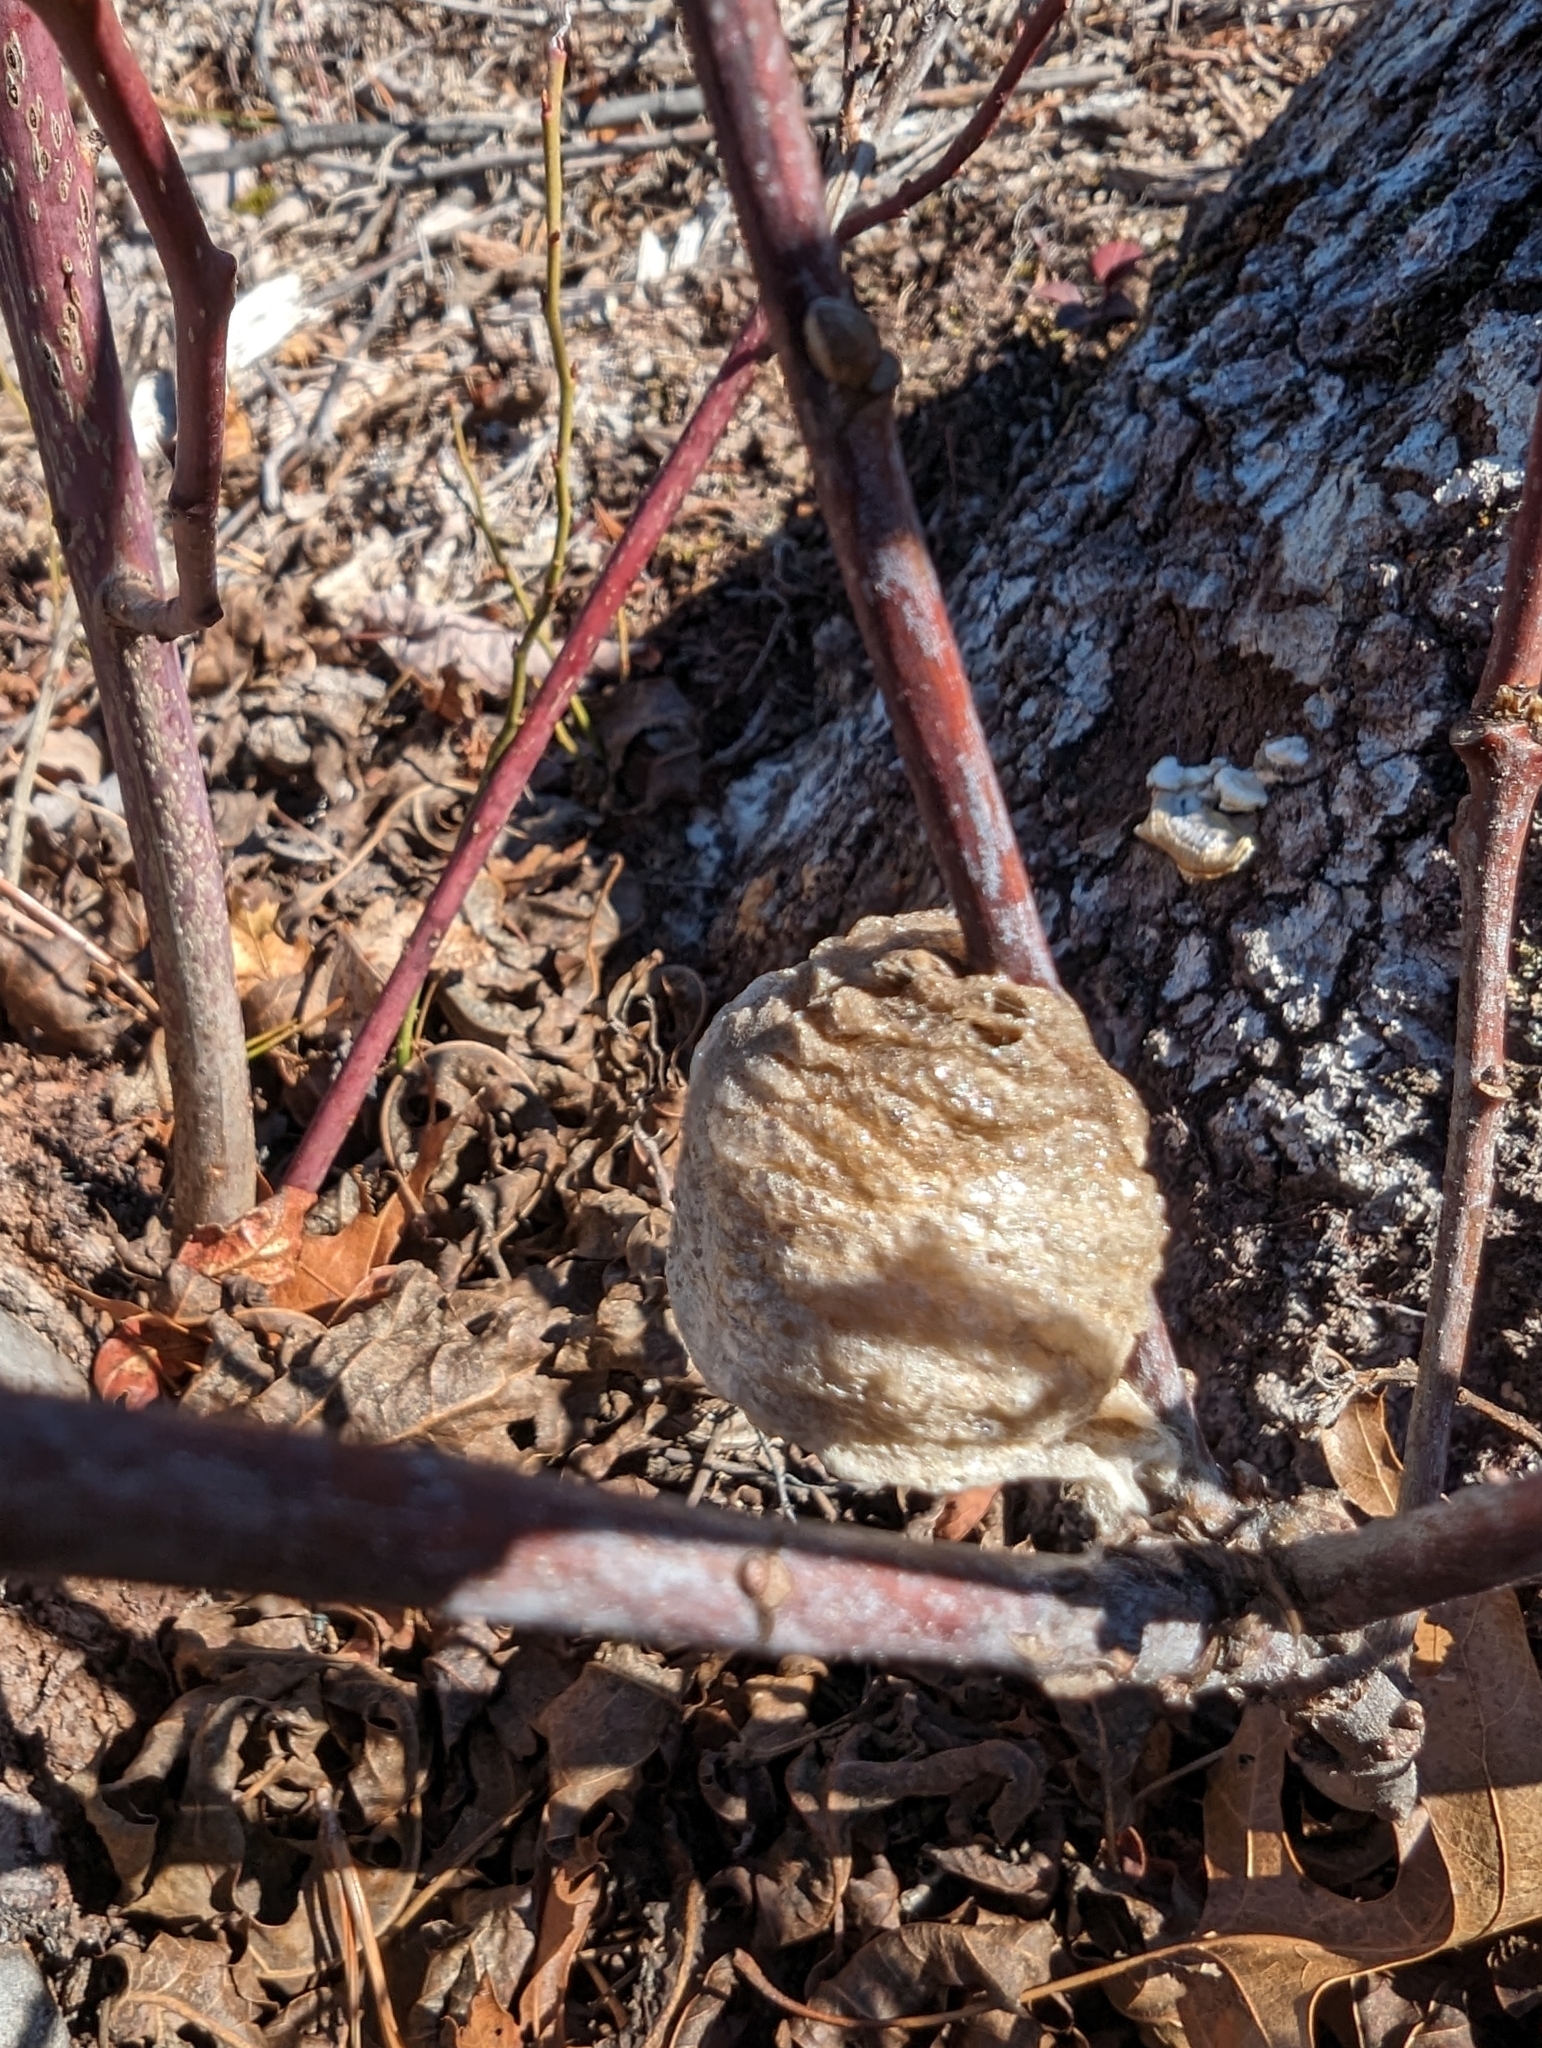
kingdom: Animalia
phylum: Arthropoda
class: Insecta
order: Mantodea
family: Mantidae
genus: Tenodera
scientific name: Tenodera sinensis
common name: Chinese mantis
